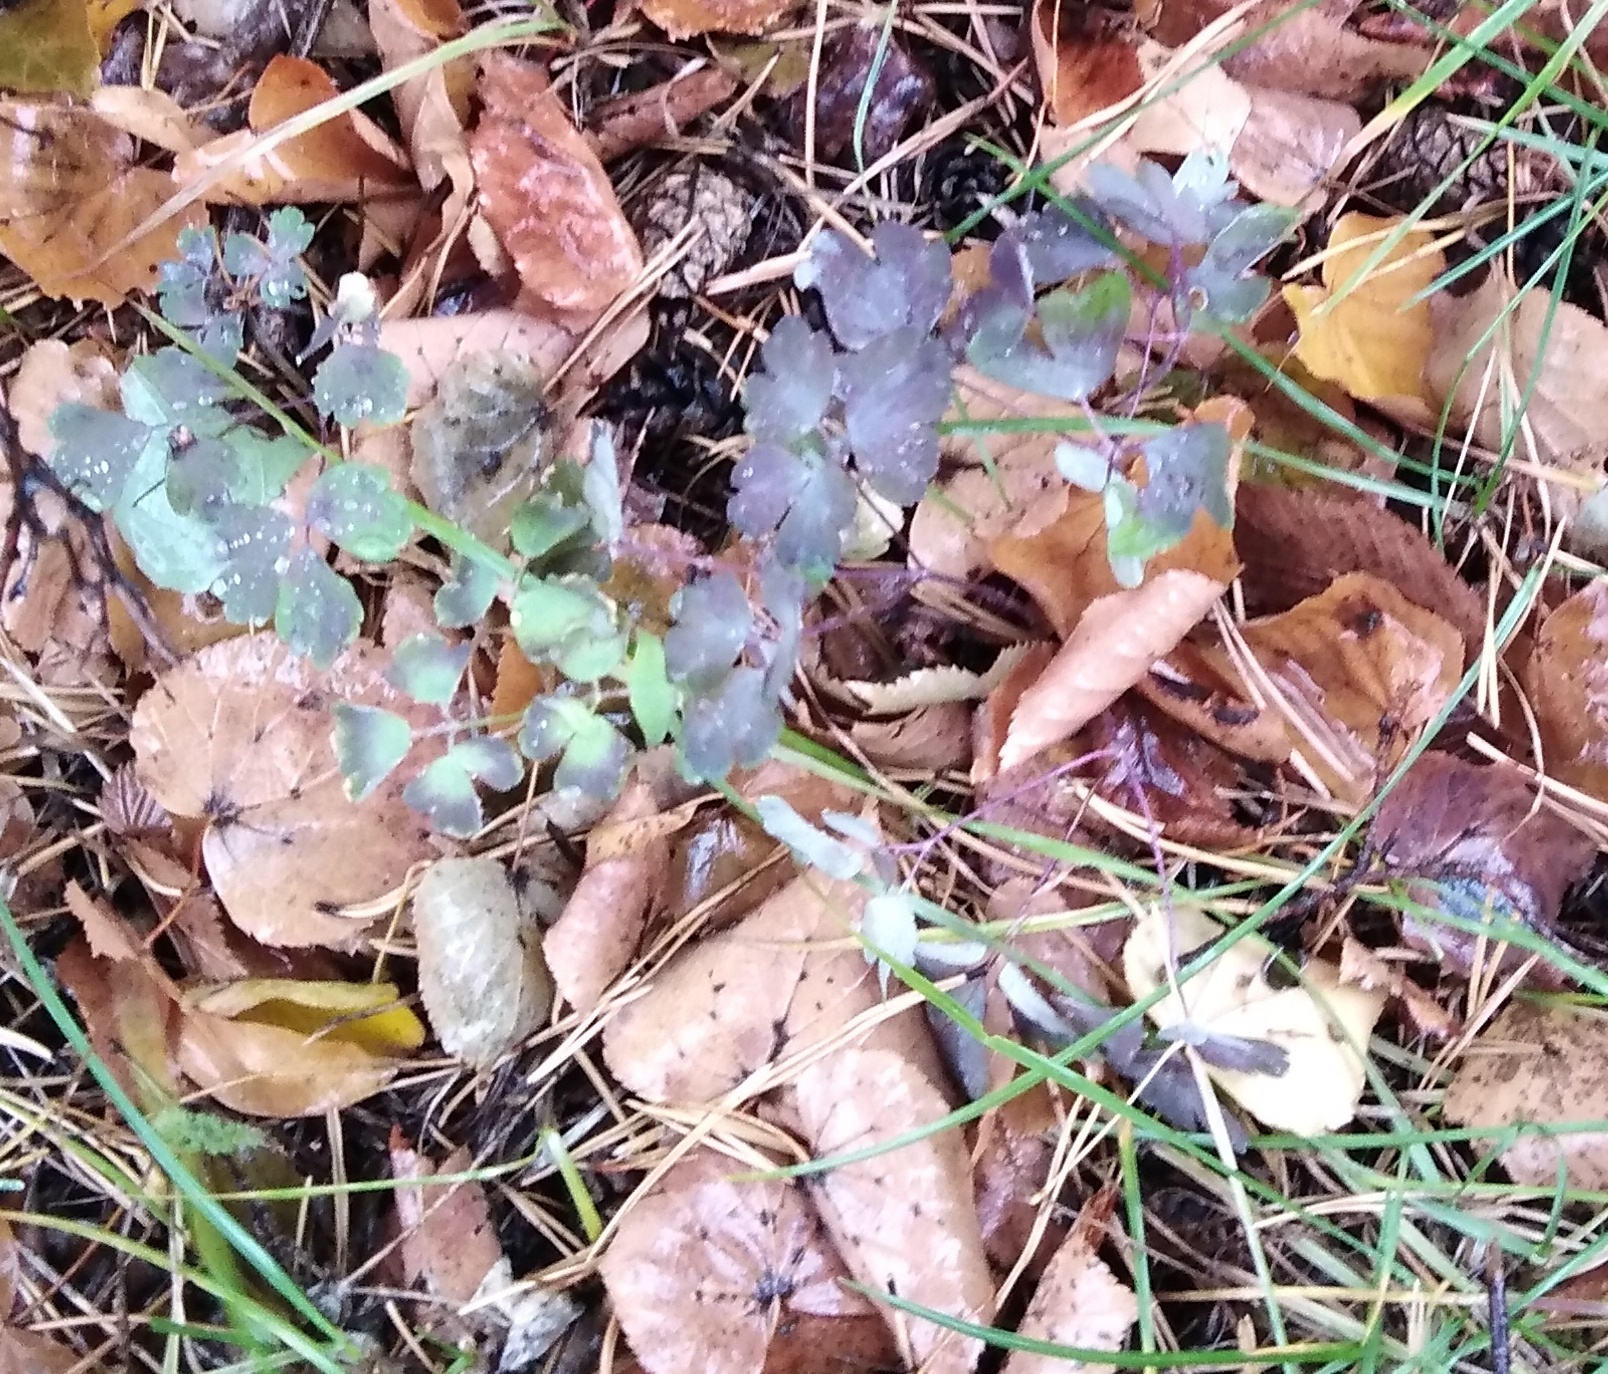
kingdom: Plantae
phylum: Tracheophyta
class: Magnoliopsida
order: Ranunculales
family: Ranunculaceae
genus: Aquilegia
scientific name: Aquilegia vulgaris
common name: Columbine
